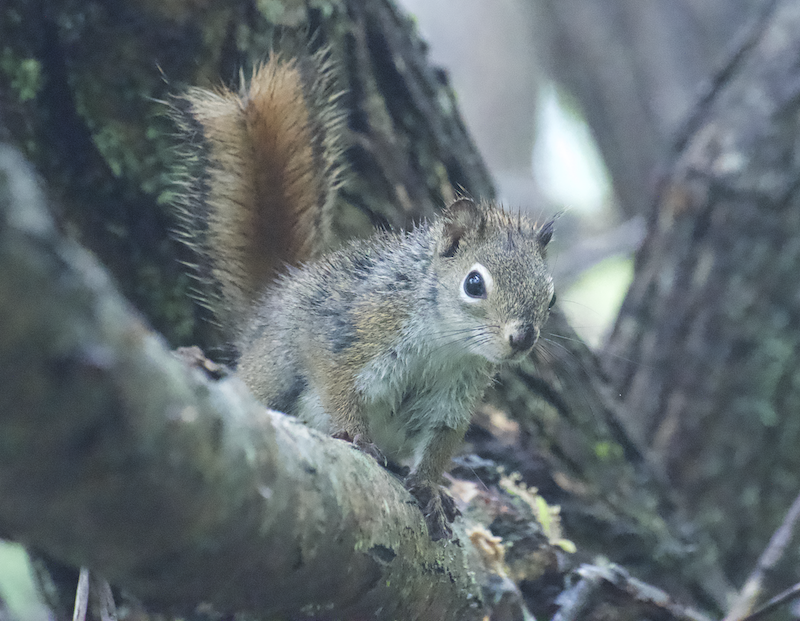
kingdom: Animalia
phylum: Chordata
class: Mammalia
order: Rodentia
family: Sciuridae
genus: Tamiasciurus
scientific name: Tamiasciurus hudsonicus
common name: Red squirrel
